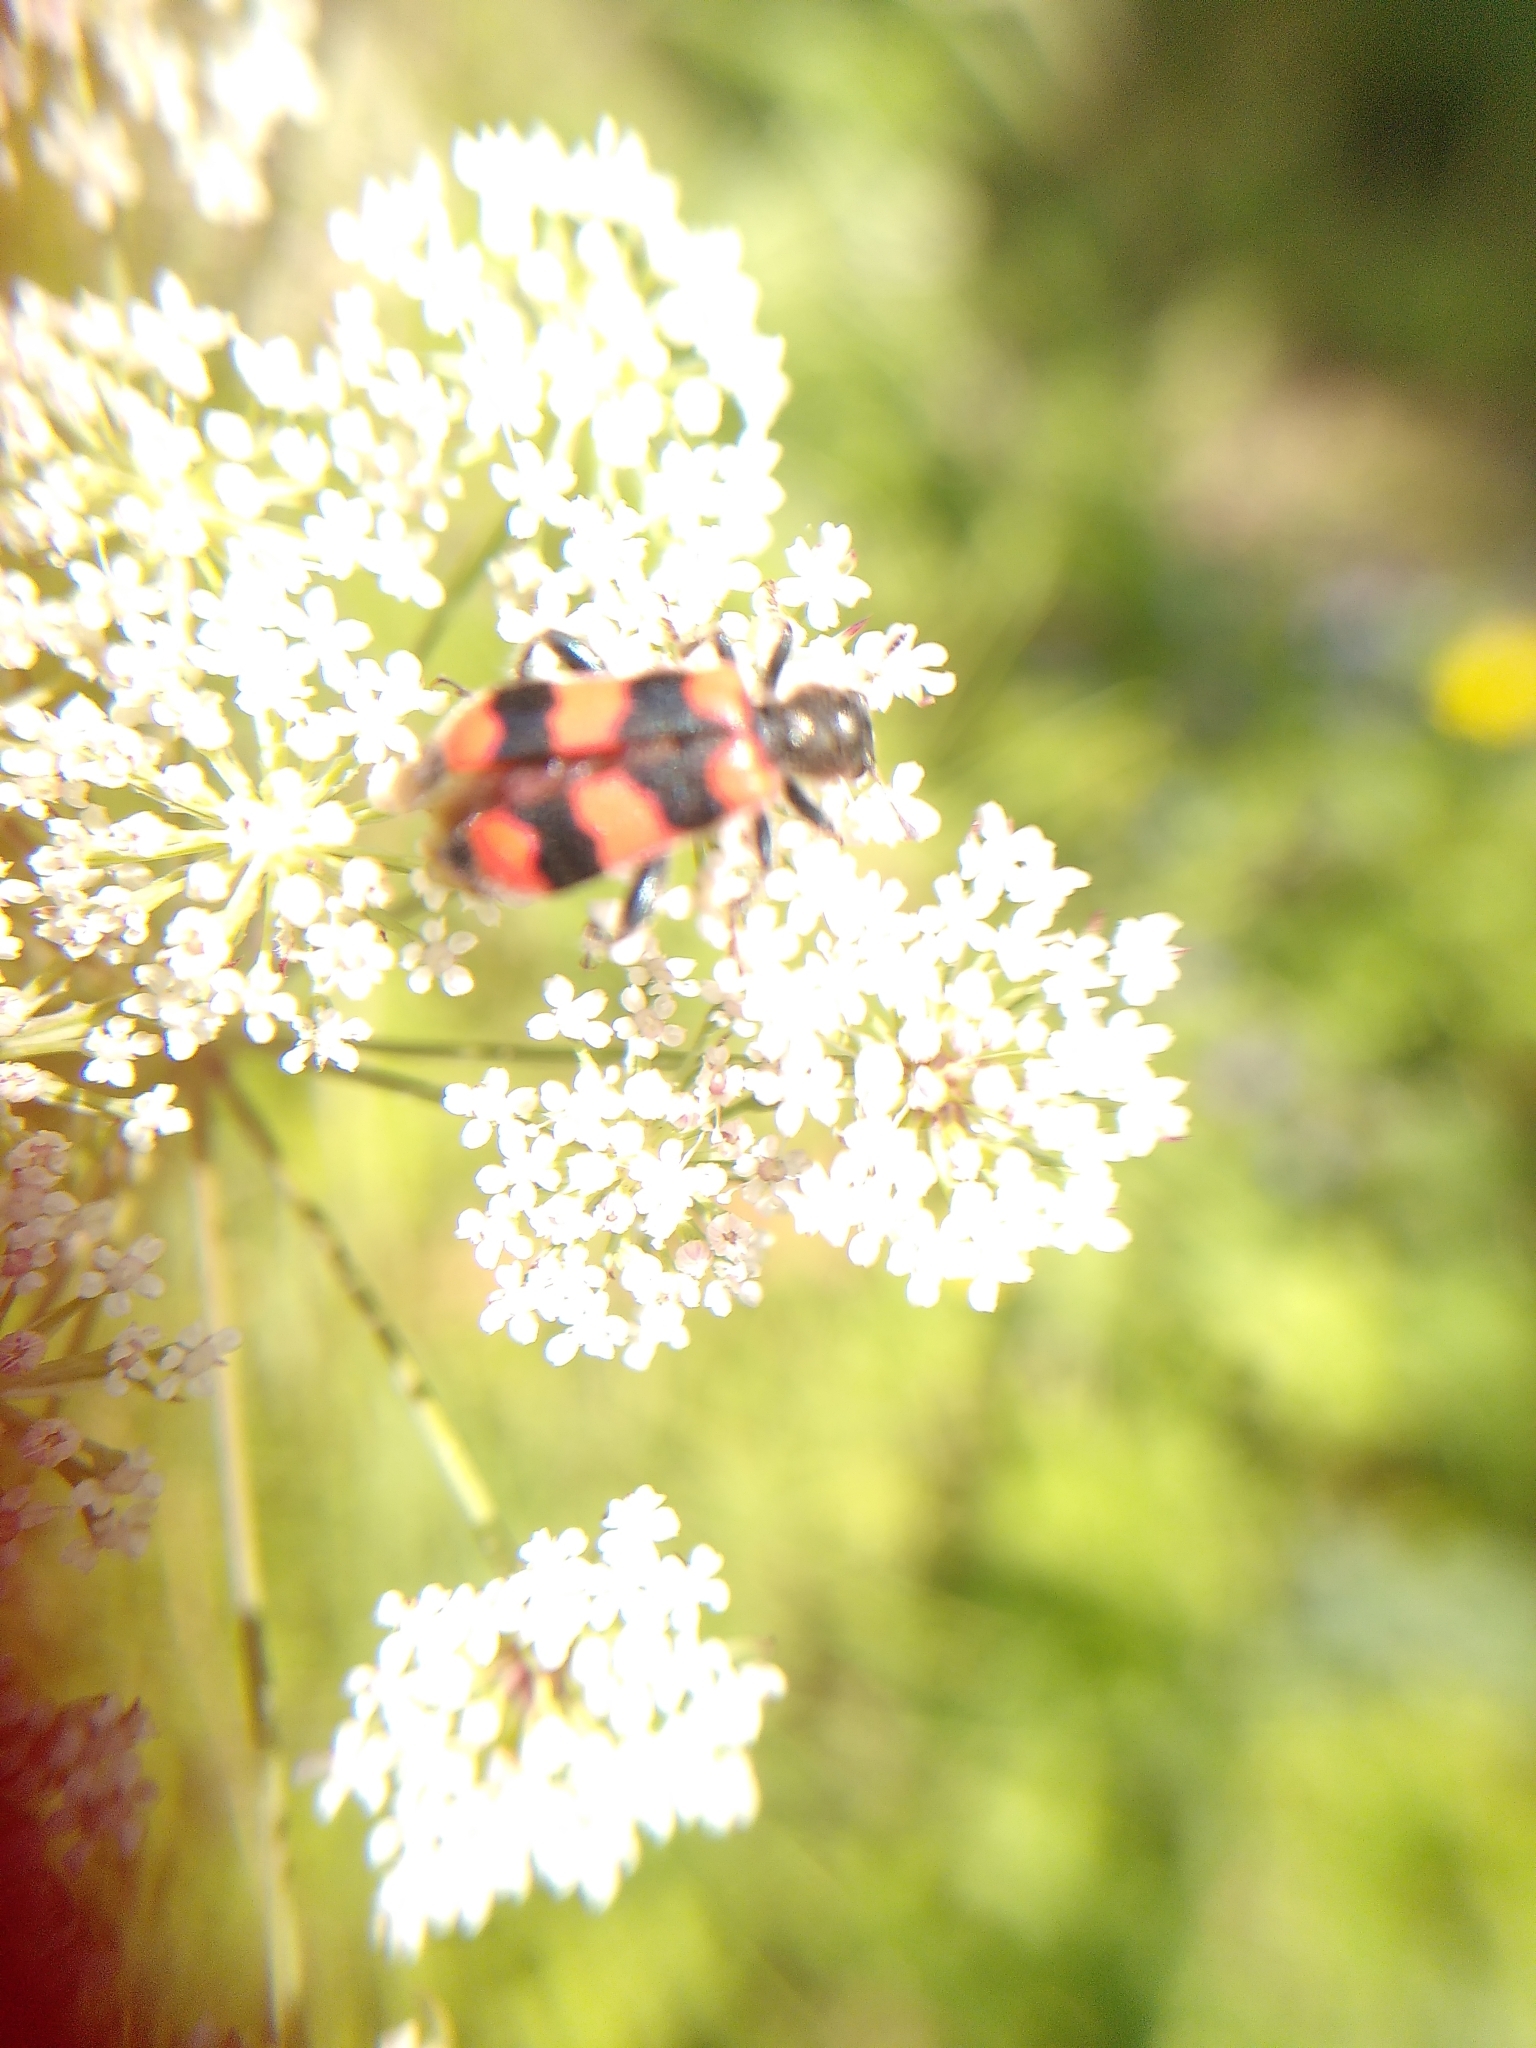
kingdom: Animalia
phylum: Arthropoda
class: Insecta
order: Coleoptera
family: Cleridae
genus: Trichodes
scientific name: Trichodes apiarius
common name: Bee-eating beetle
